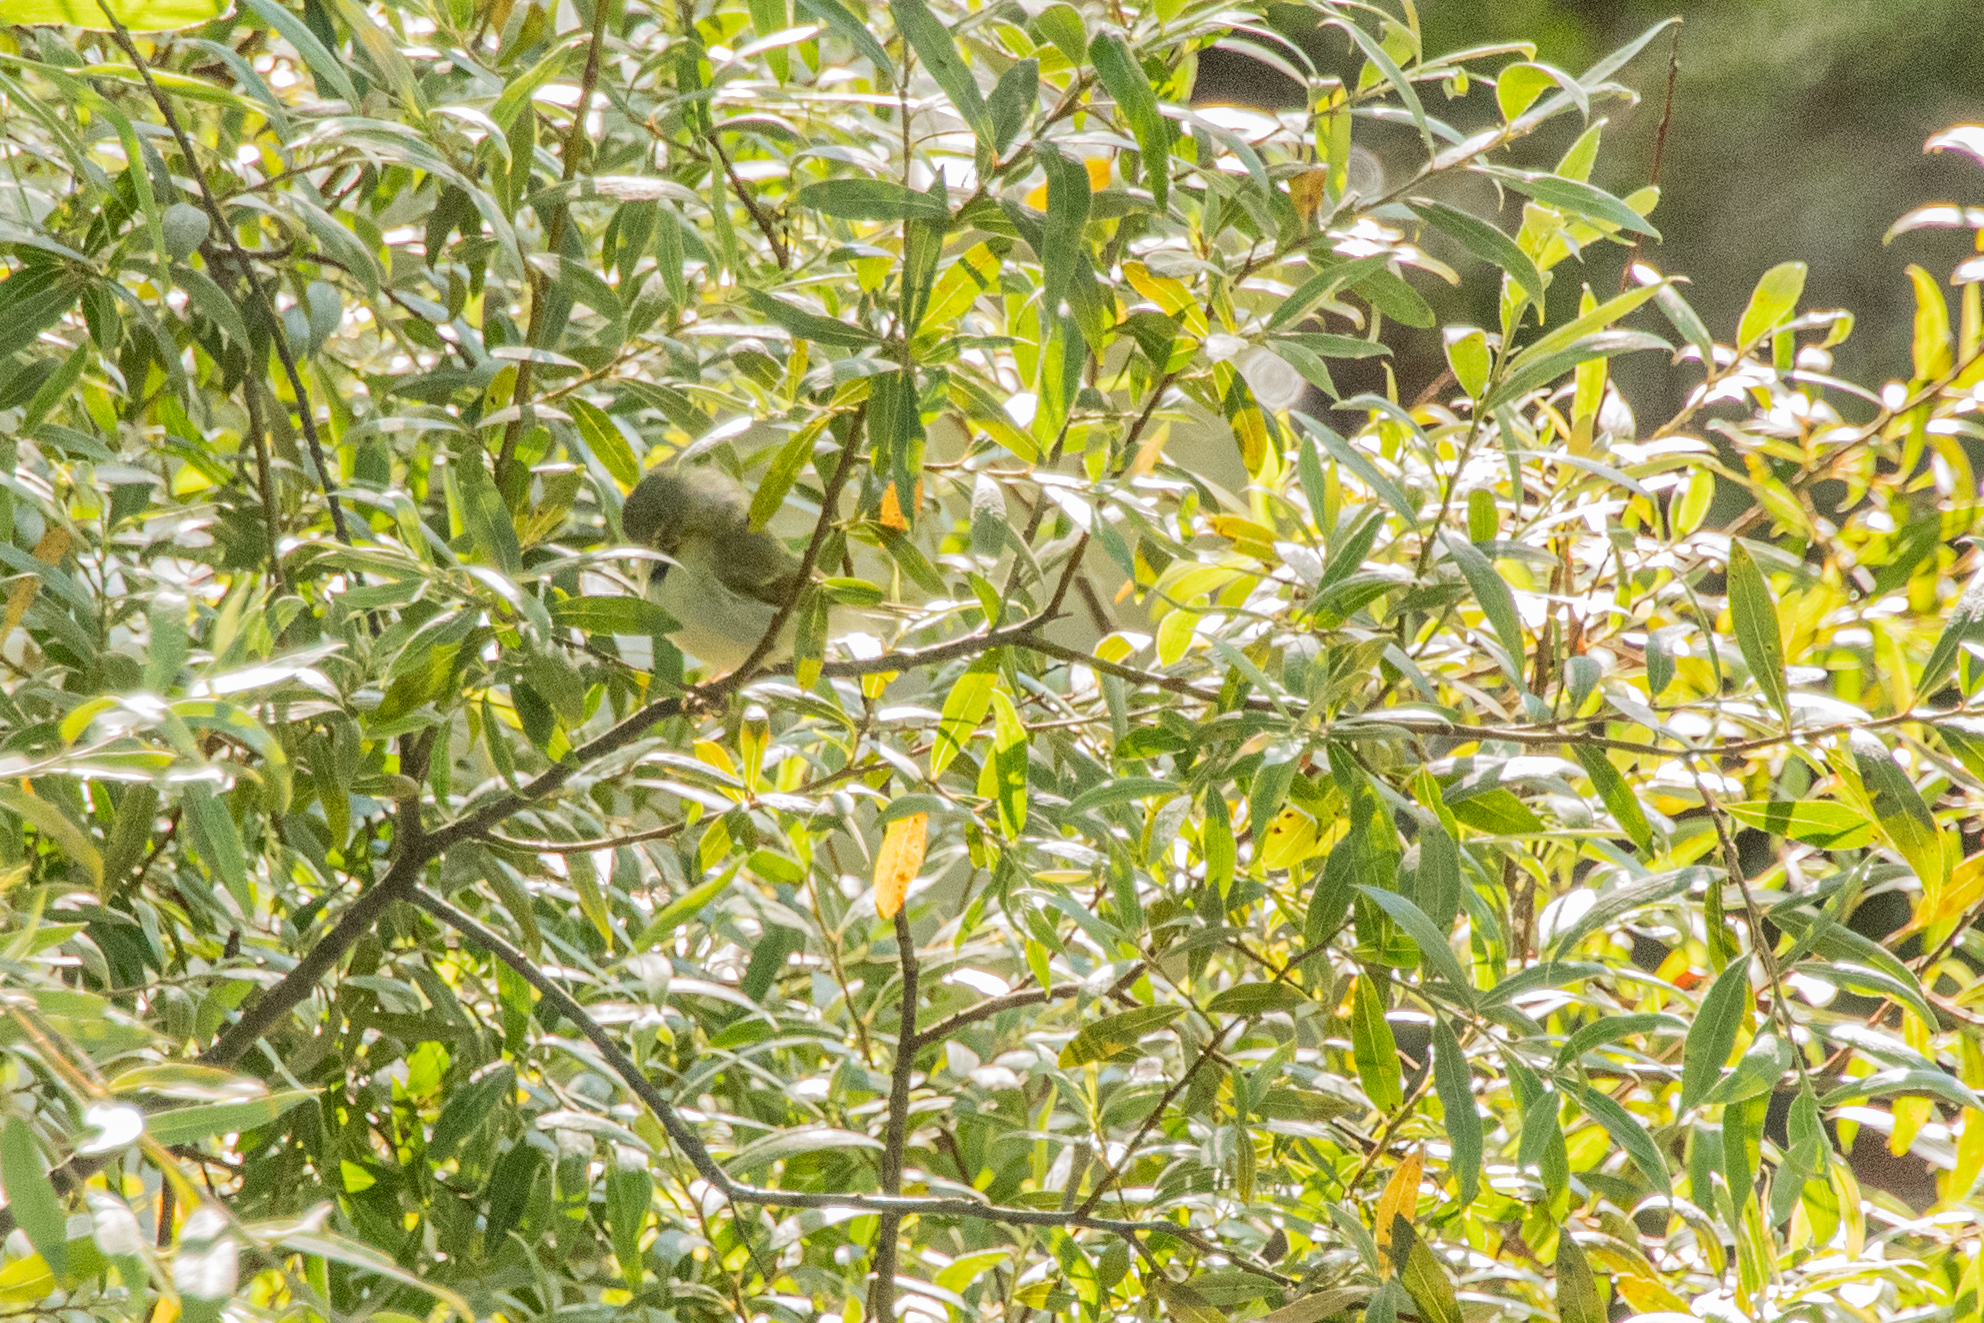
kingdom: Animalia
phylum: Chordata
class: Aves
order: Passeriformes
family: Phylloscopidae
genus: Phylloscopus
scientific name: Phylloscopus nitidus
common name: Green warbler
